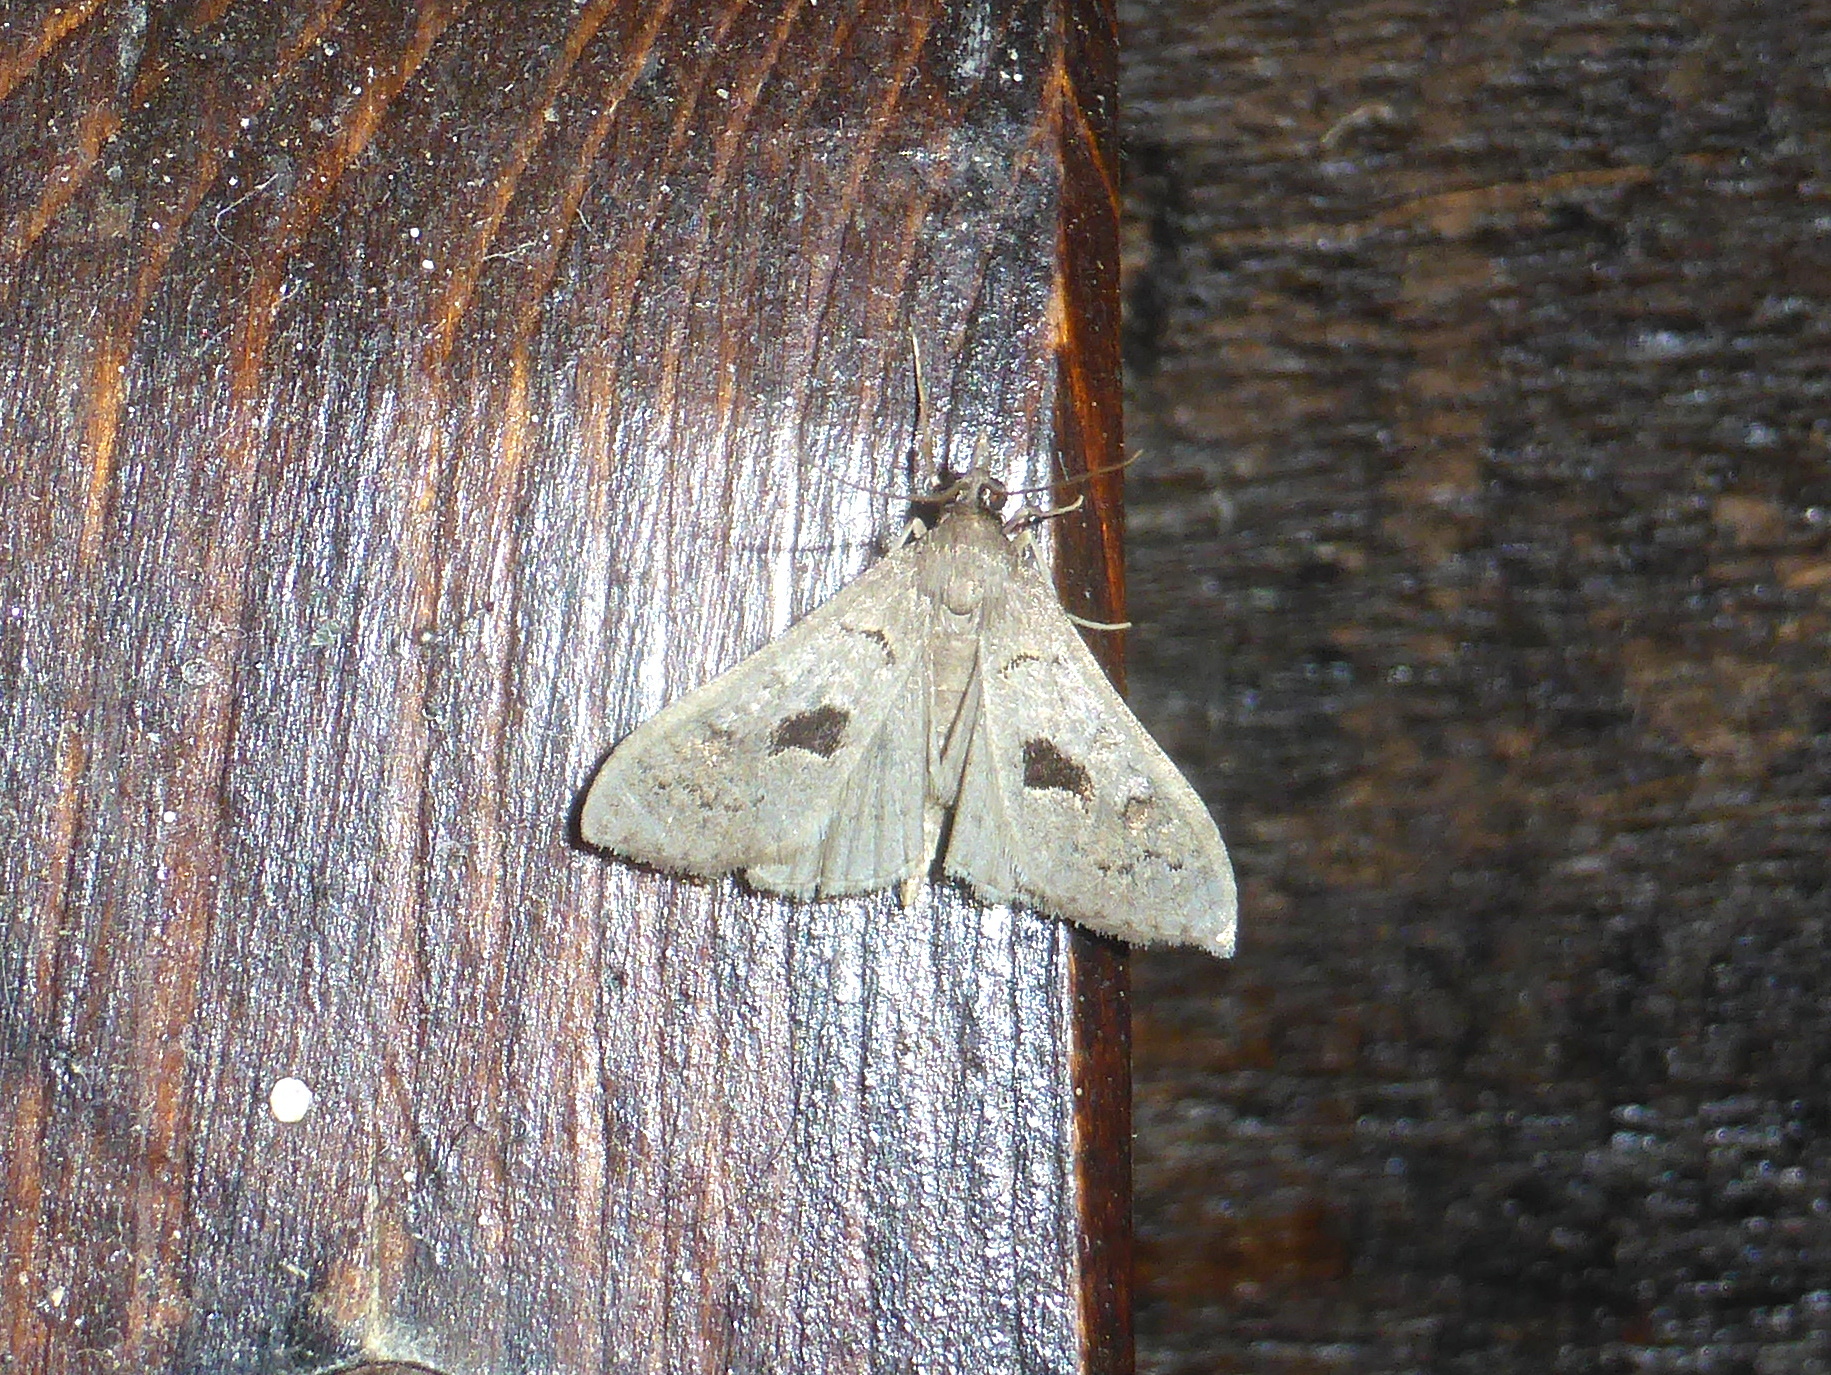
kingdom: Animalia
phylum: Arthropoda
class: Insecta
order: Lepidoptera
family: Crambidae
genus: Mecyna
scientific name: Mecyna asinalis
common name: Coastal pearl
